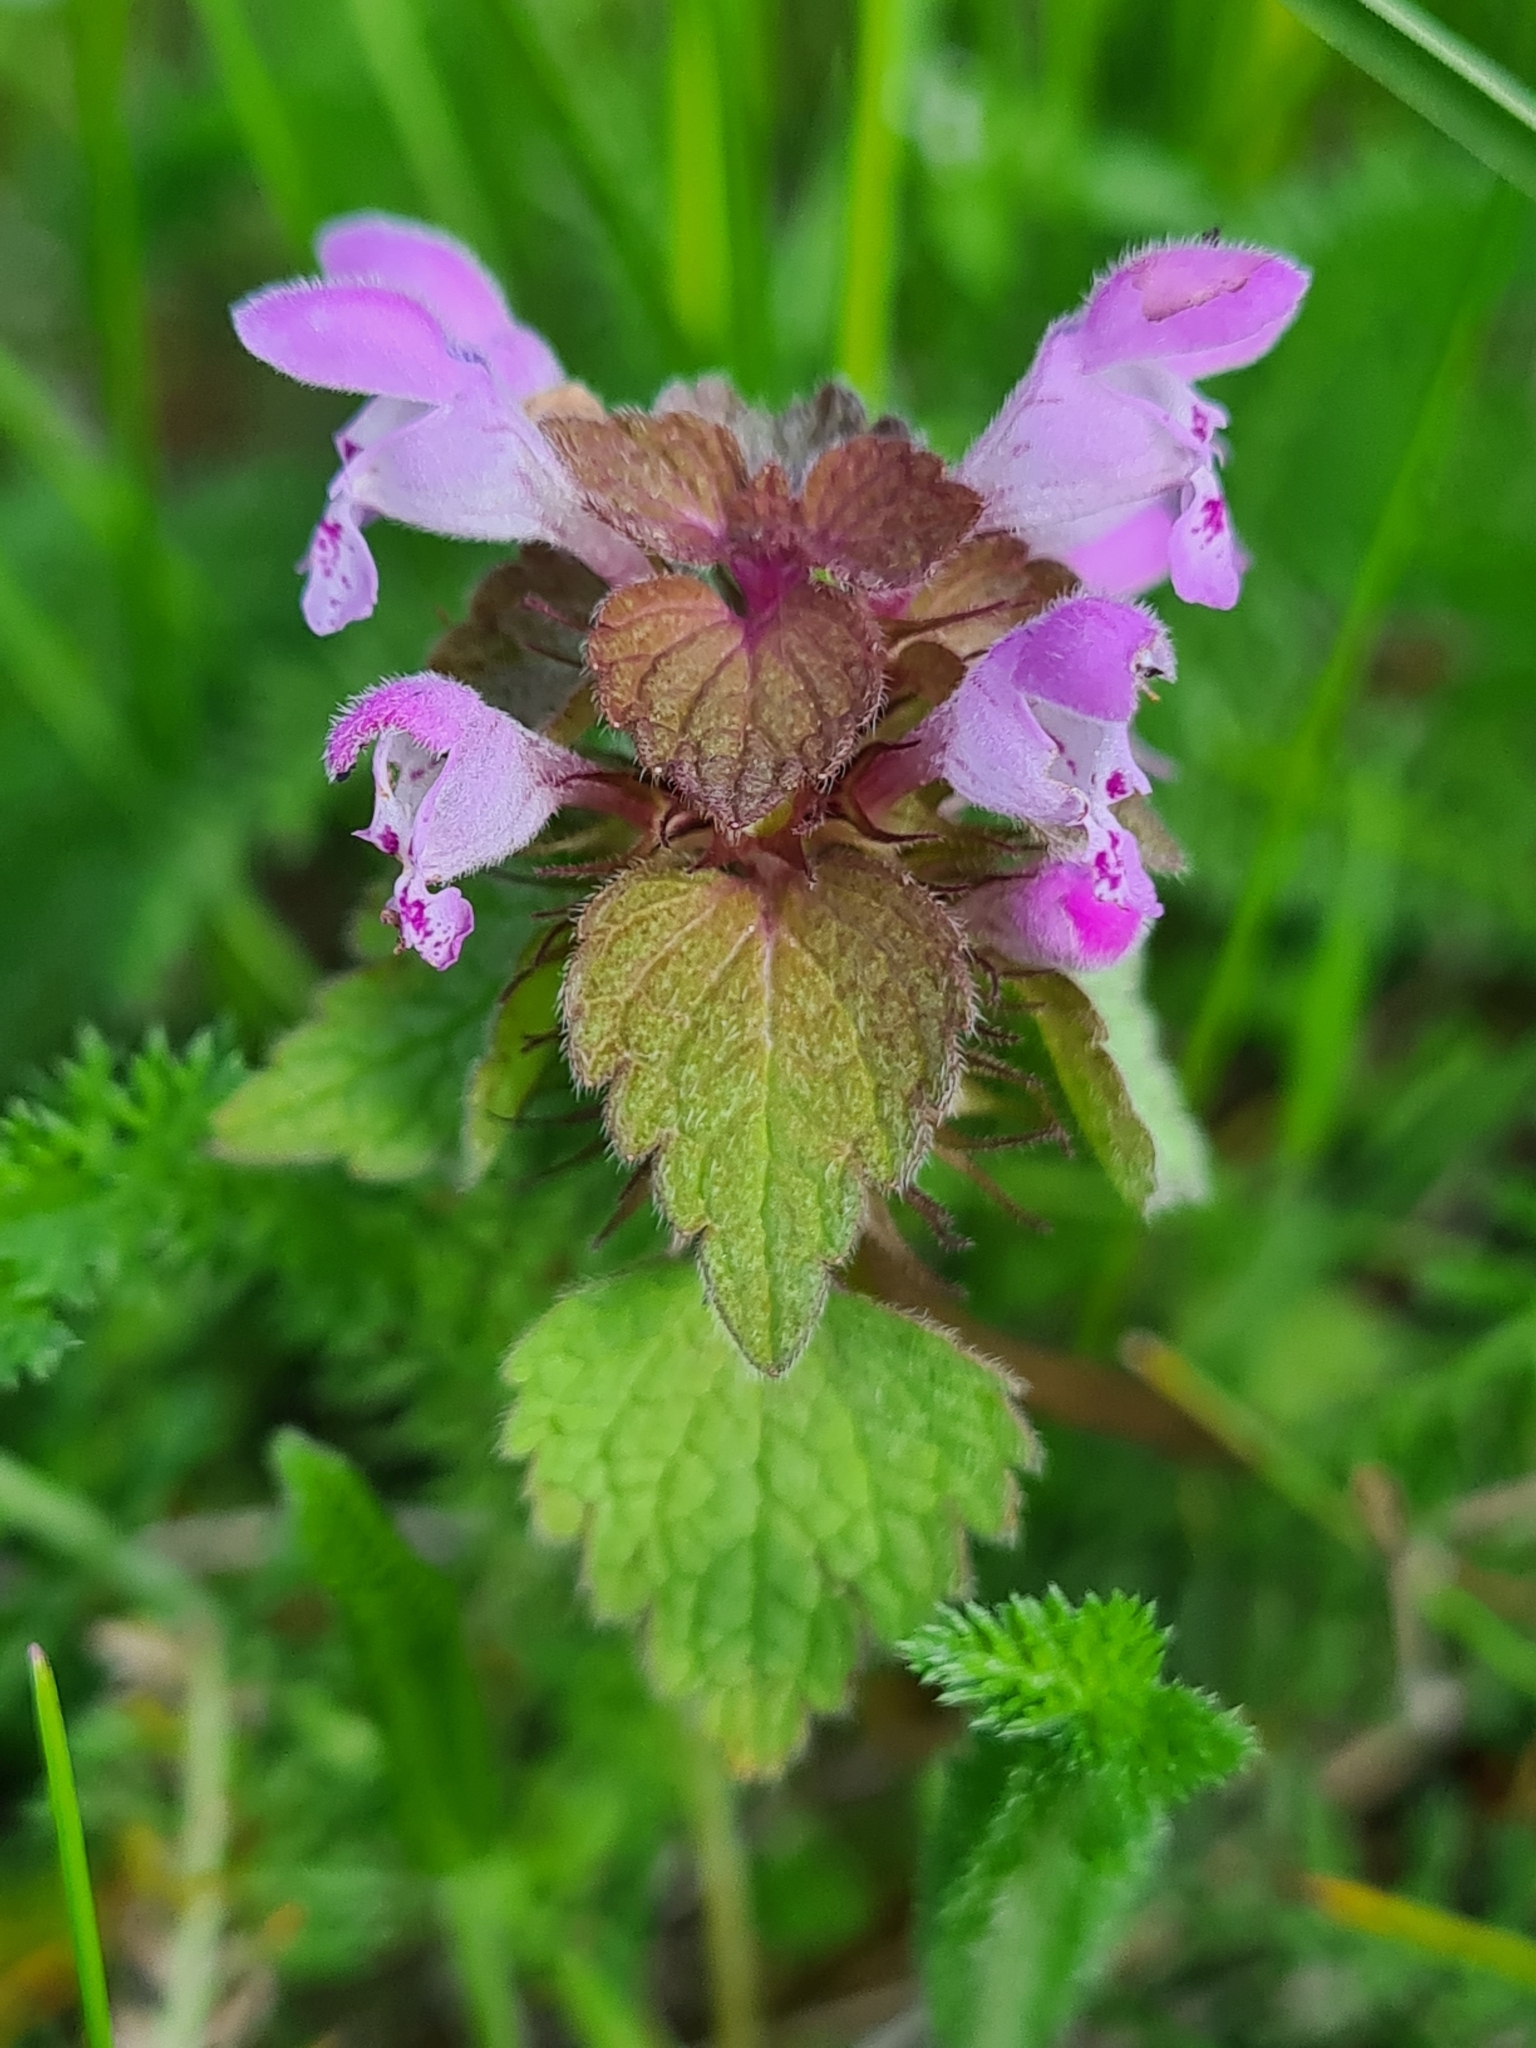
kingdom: Plantae
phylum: Tracheophyta
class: Magnoliopsida
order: Lamiales
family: Lamiaceae
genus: Lamium
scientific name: Lamium purpureum
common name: Red dead-nettle
